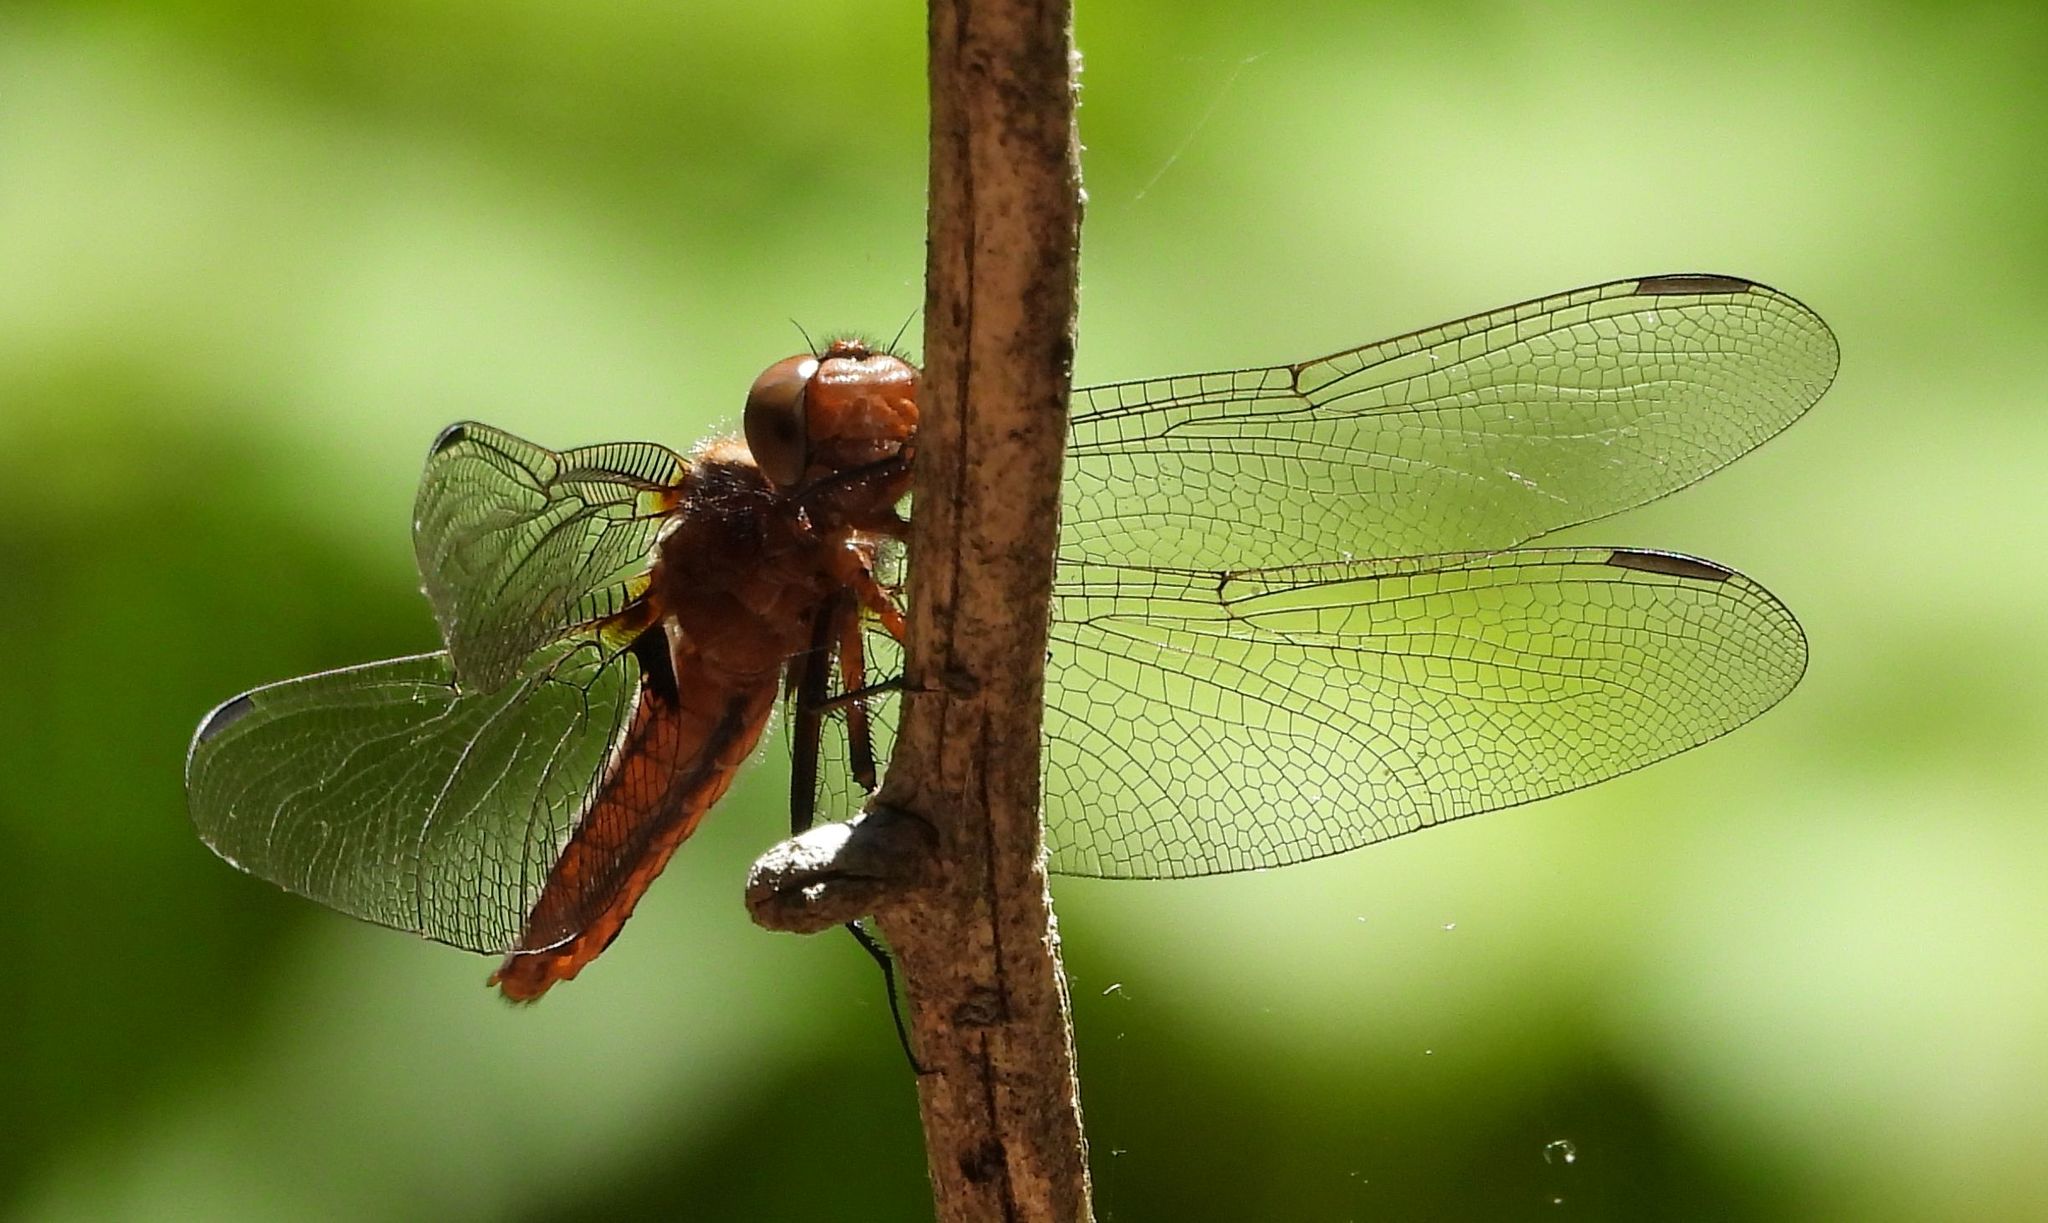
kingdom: Animalia
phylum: Arthropoda
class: Insecta
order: Odonata
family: Libellulidae
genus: Ladona
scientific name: Ladona julia
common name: Chalk-fronted corporal
